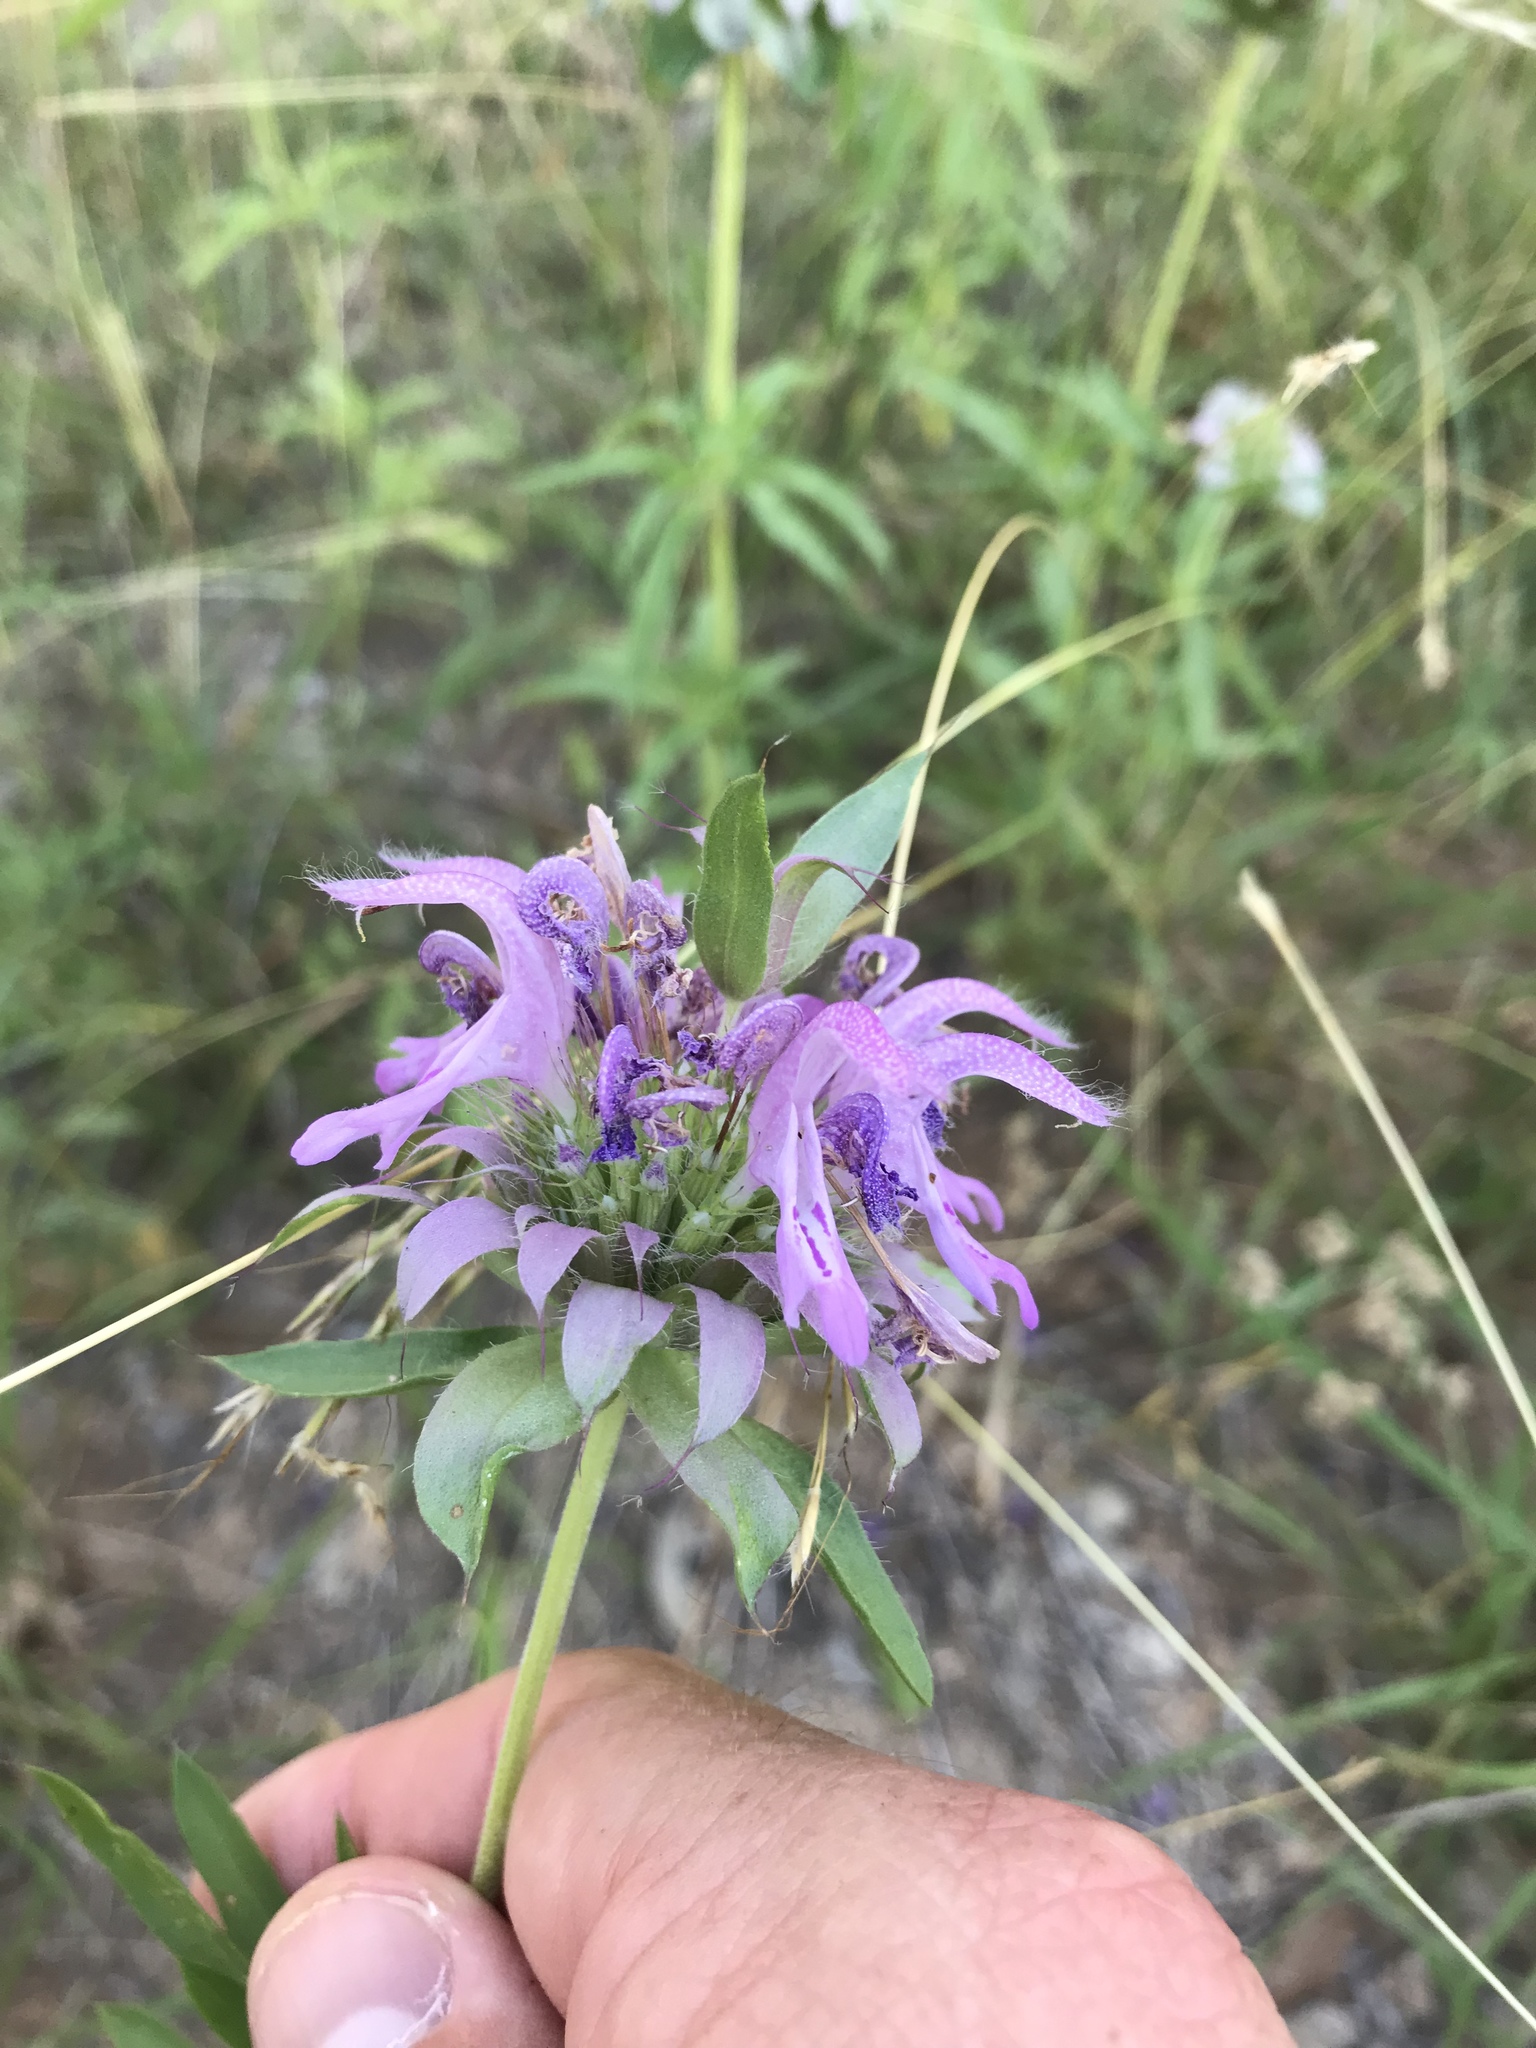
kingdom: Plantae
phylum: Tracheophyta
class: Magnoliopsida
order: Lamiales
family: Lamiaceae
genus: Monarda
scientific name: Monarda citriodora
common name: Lemon beebalm
